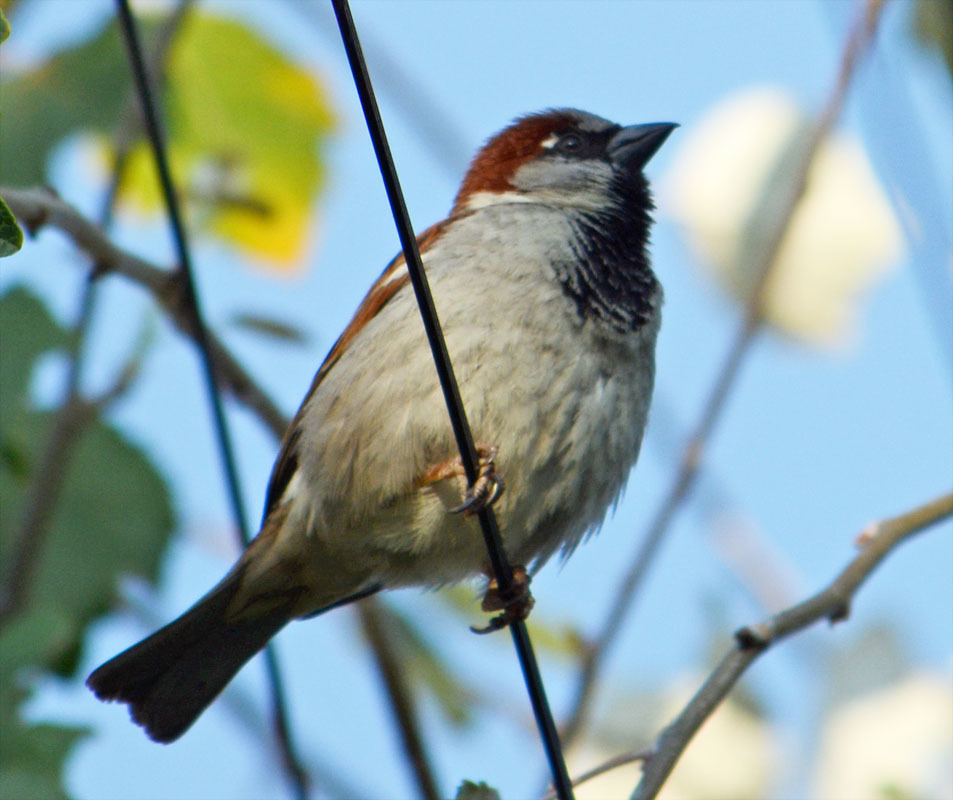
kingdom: Animalia
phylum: Chordata
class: Aves
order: Passeriformes
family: Passeridae
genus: Passer
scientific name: Passer domesticus
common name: House sparrow
